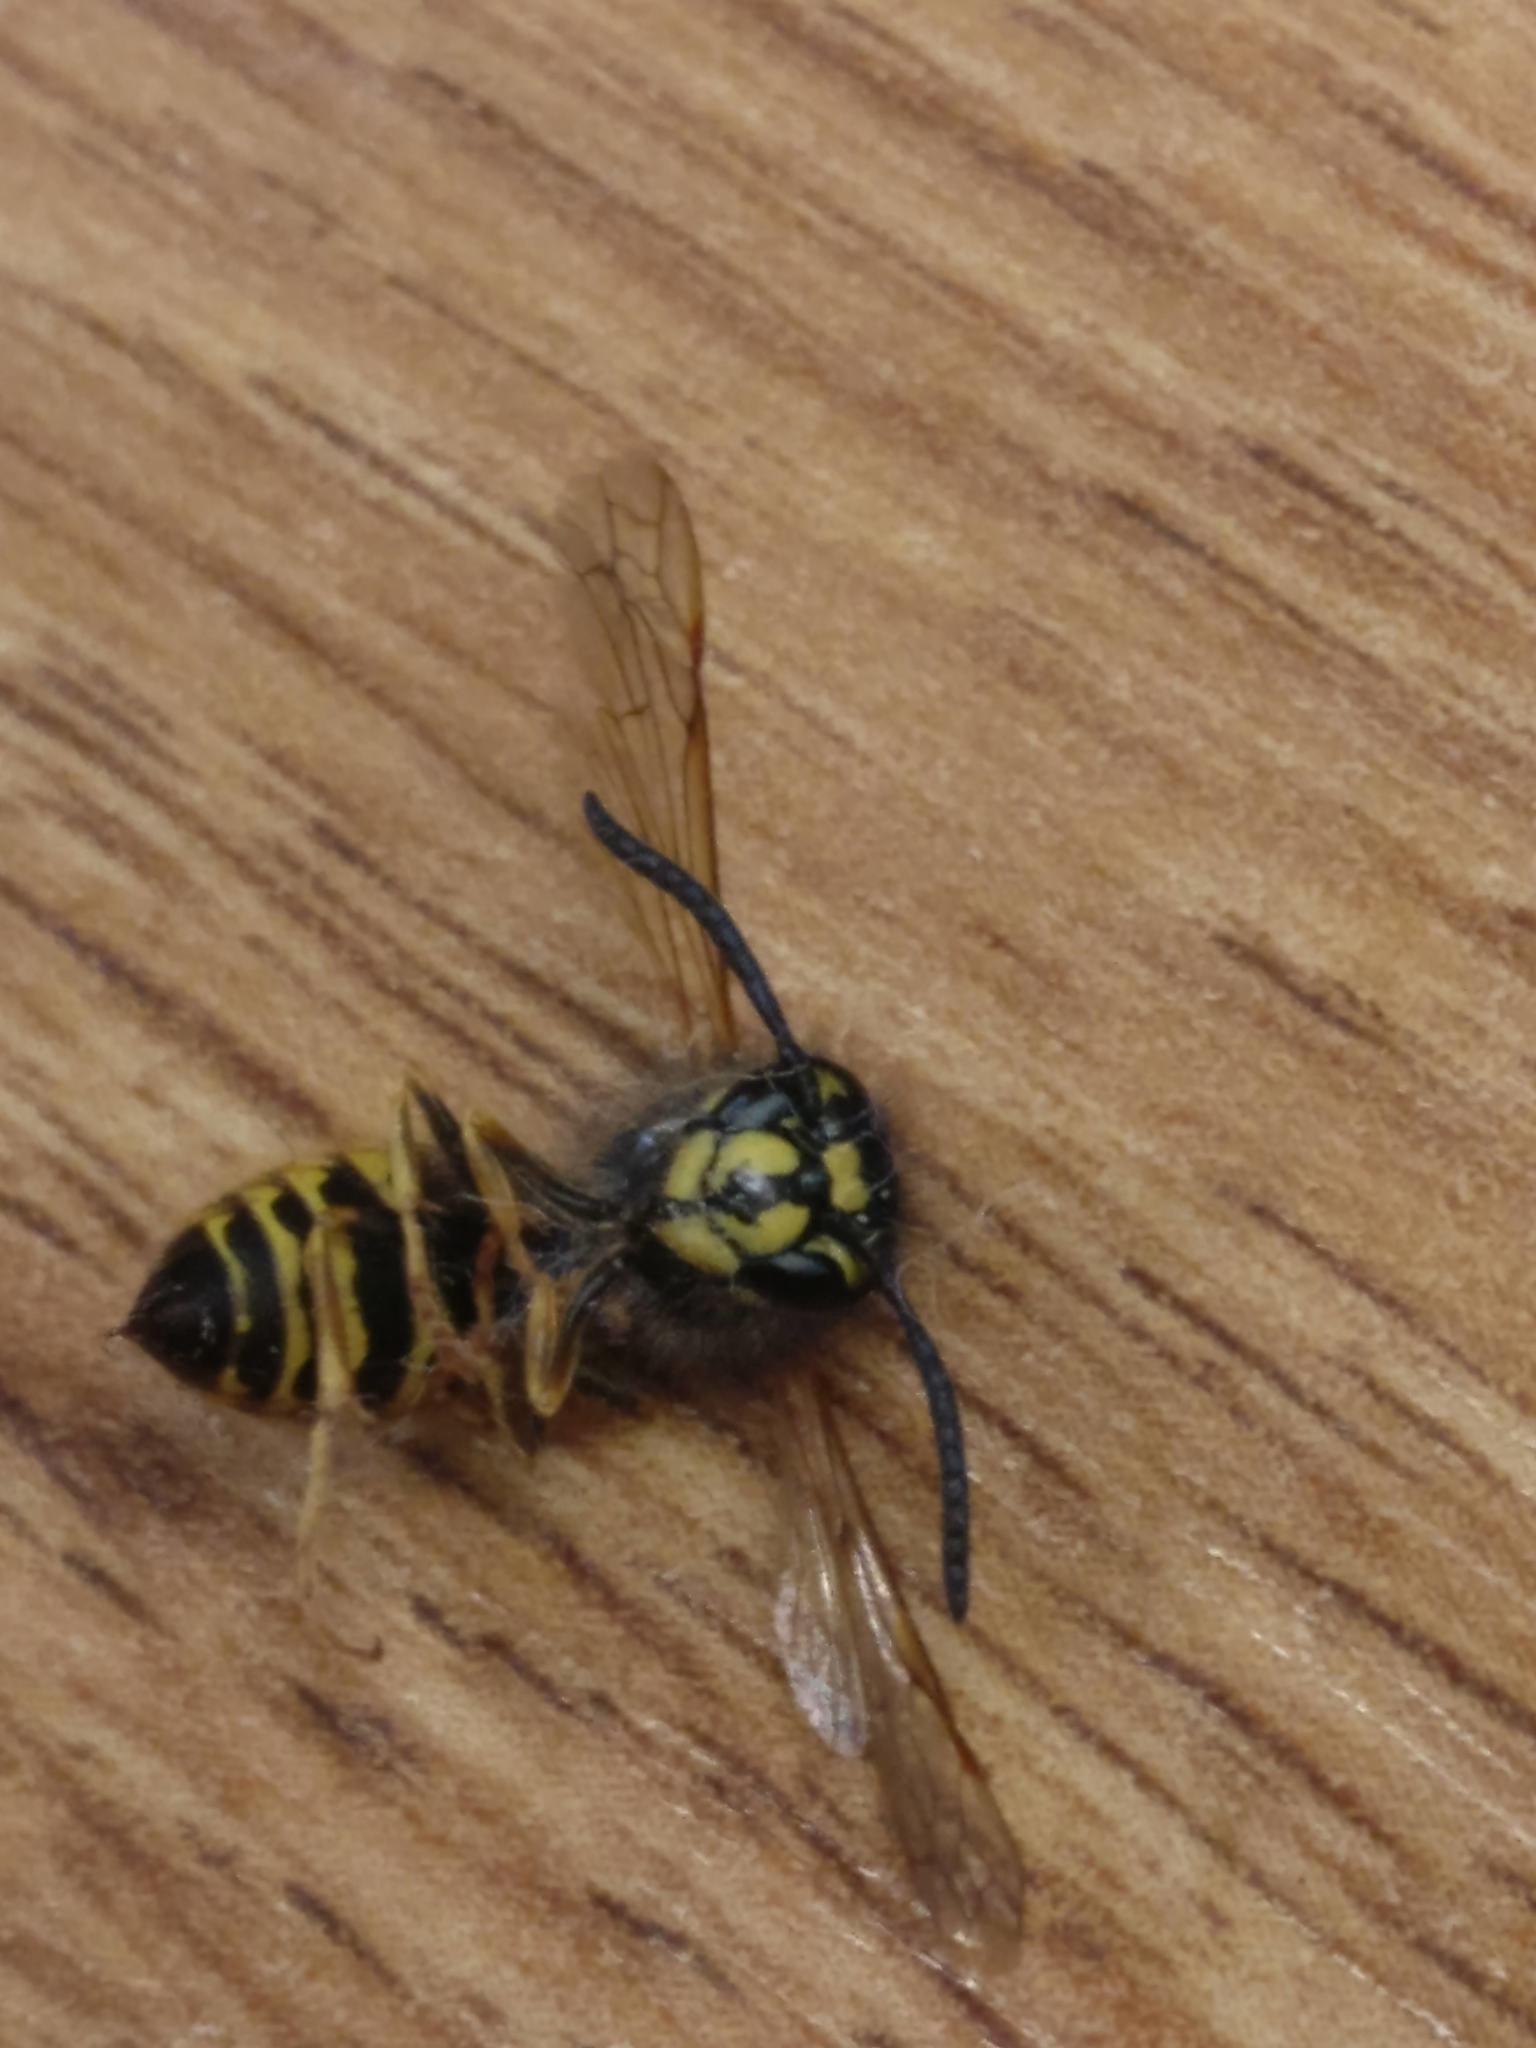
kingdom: Animalia
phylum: Arthropoda
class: Insecta
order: Hymenoptera
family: Vespidae
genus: Vespula
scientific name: Vespula vulgaris
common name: Common wasp
